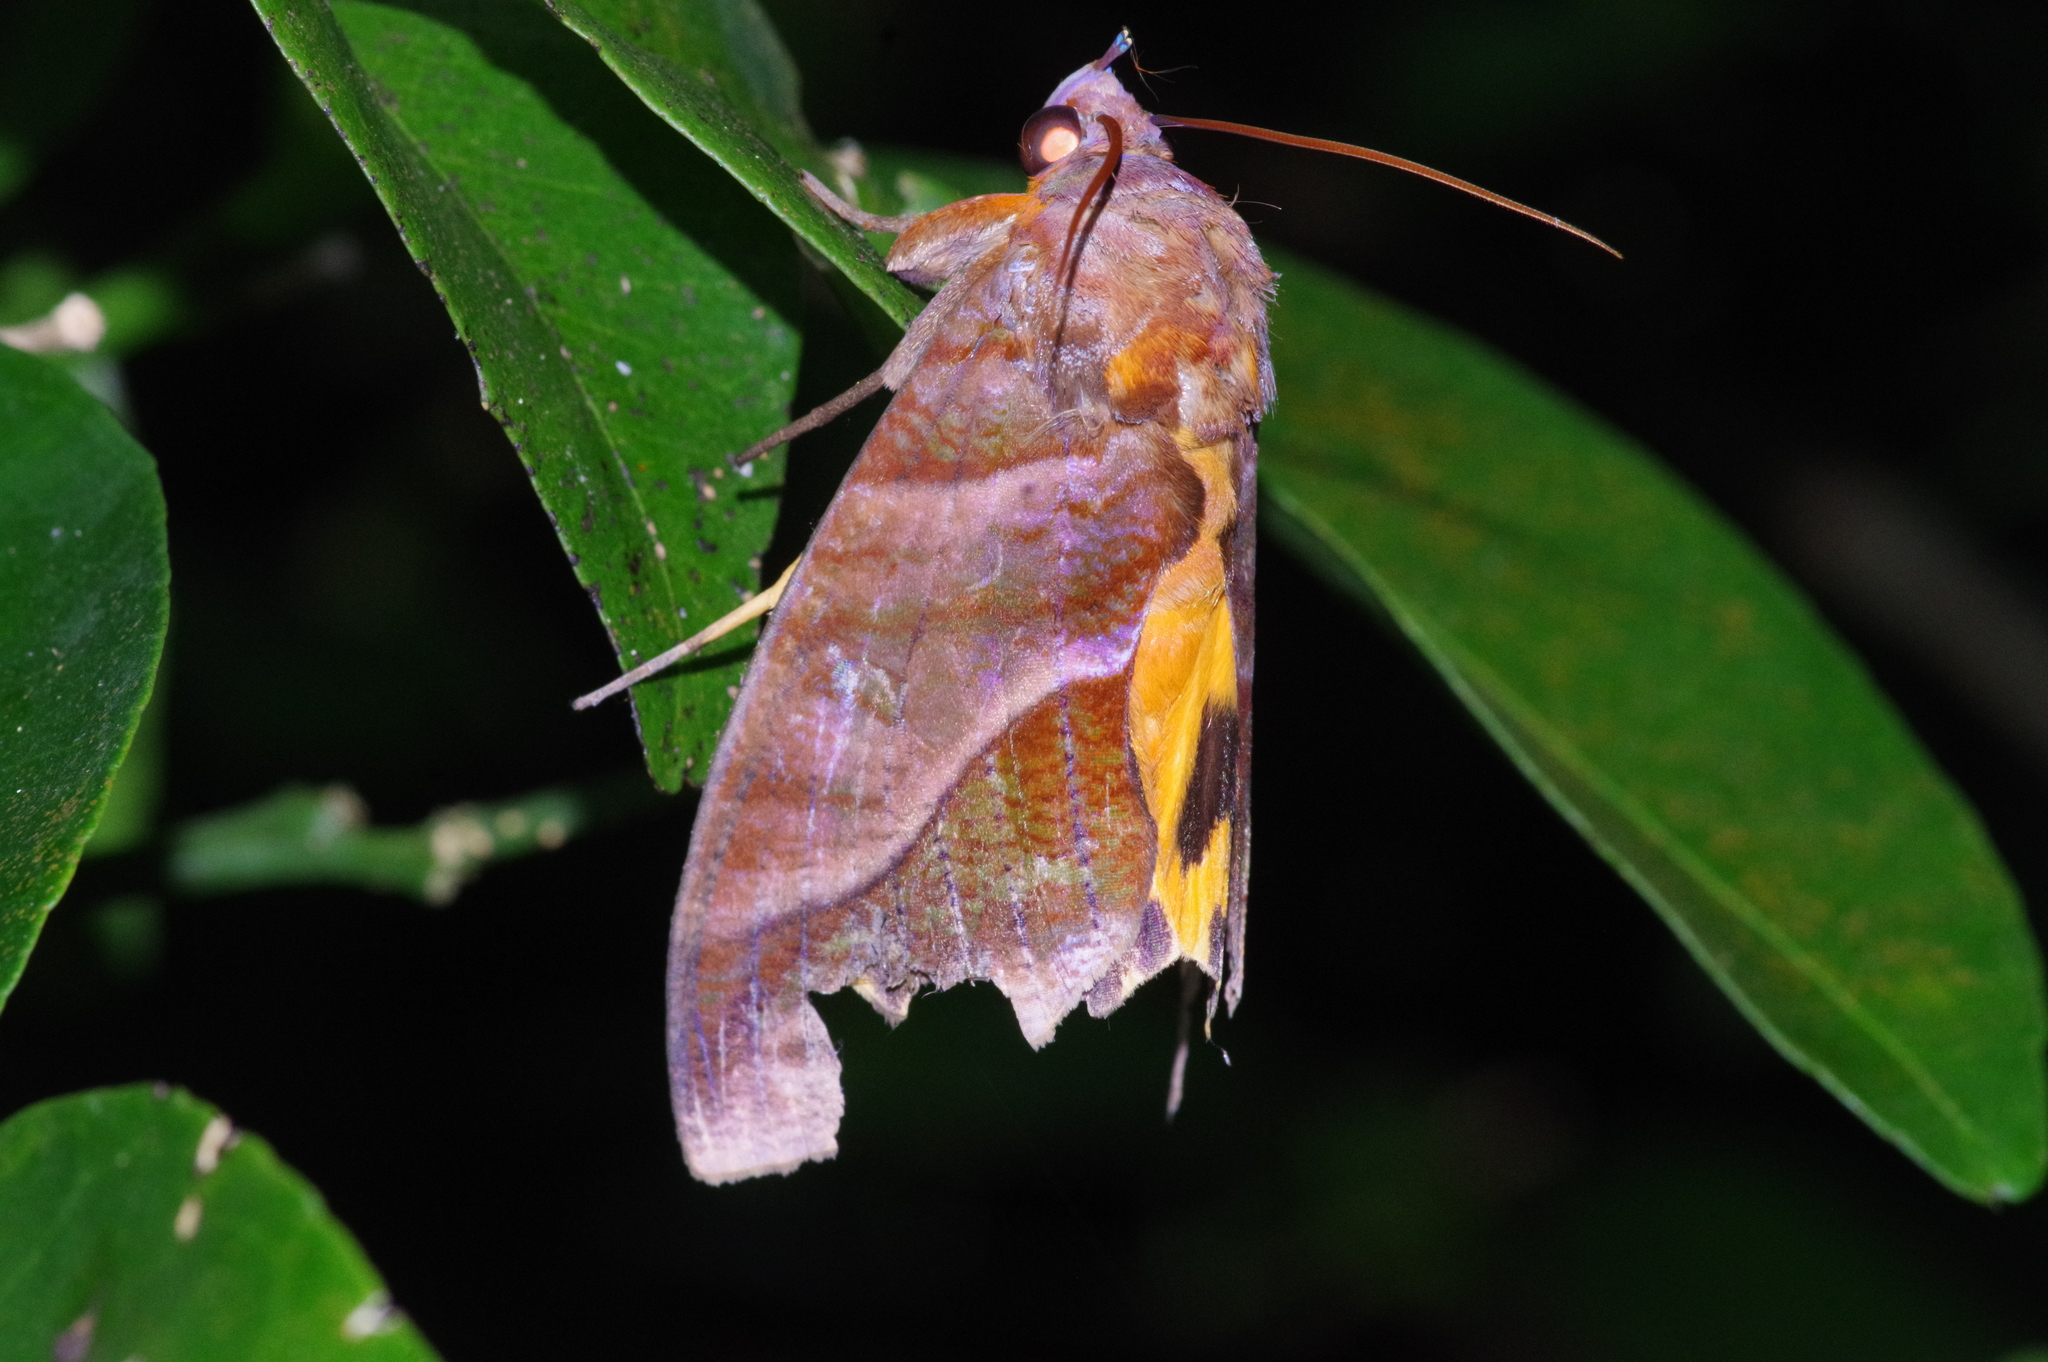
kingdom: Animalia
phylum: Arthropoda
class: Insecta
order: Lepidoptera
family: Erebidae
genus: Eudocima
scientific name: Eudocima homaena
